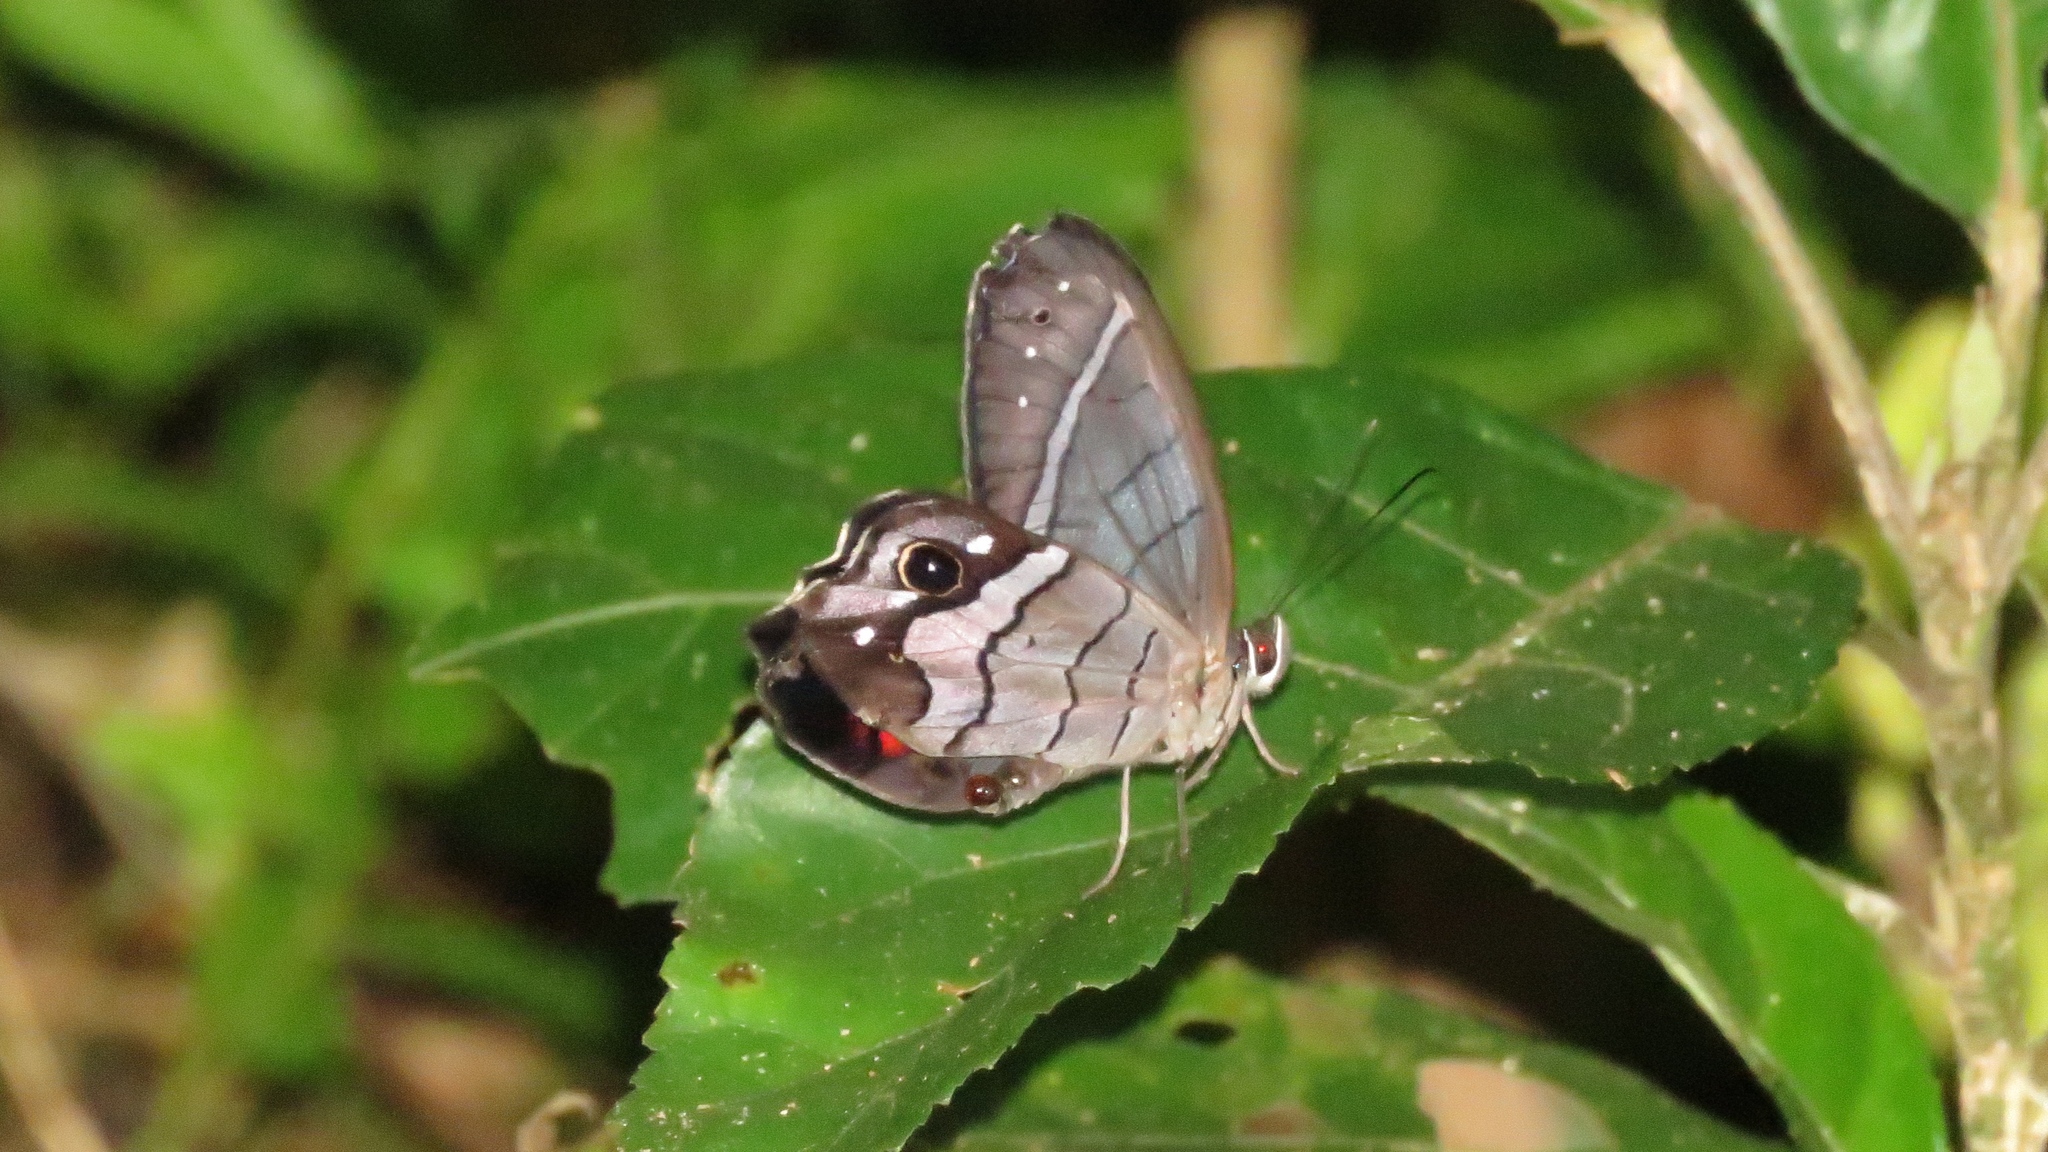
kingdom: Animalia
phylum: Arthropoda
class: Insecta
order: Lepidoptera
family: Nymphalidae
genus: Pierella
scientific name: Pierella helvina
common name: Red-washed satyr
